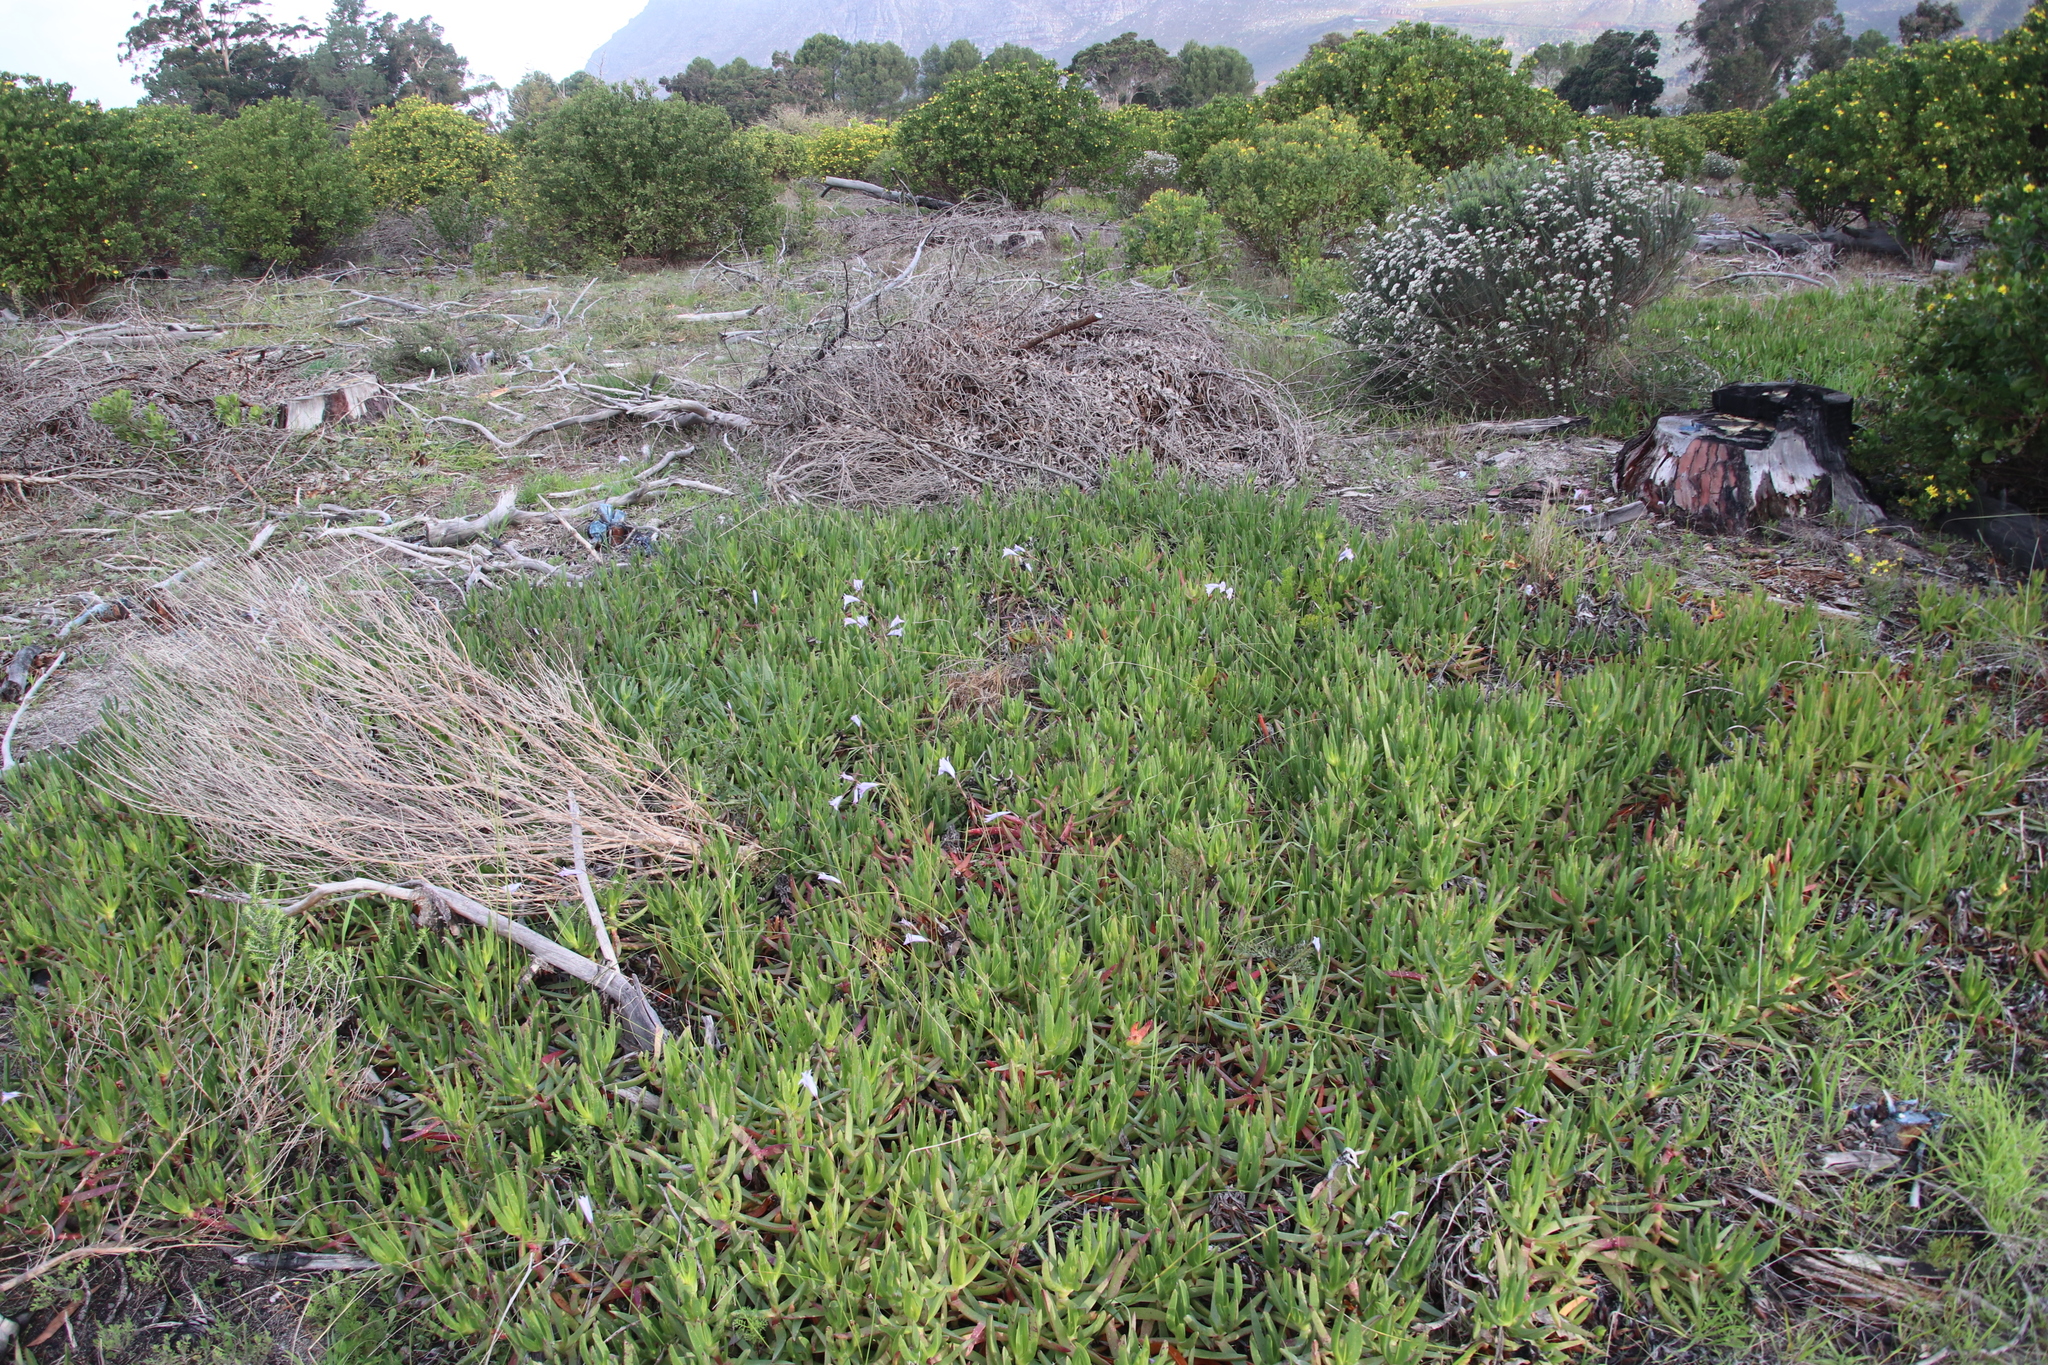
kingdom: Plantae
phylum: Tracheophyta
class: Magnoliopsida
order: Caryophyllales
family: Aizoaceae
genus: Carpobrotus
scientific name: Carpobrotus edulis
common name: Hottentot-fig
